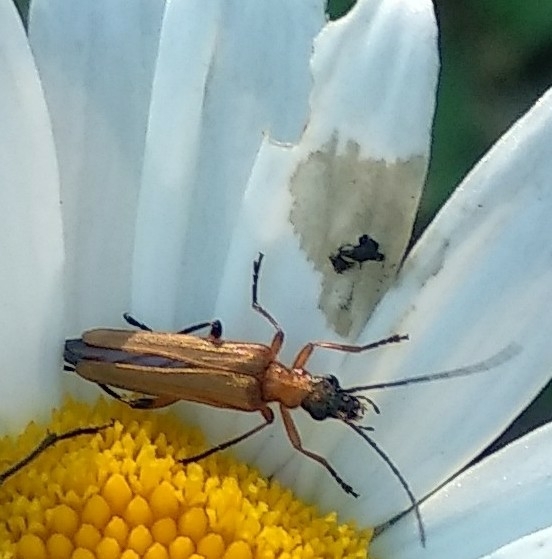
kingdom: Animalia
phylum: Arthropoda
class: Insecta
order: Coleoptera
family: Oedemeridae
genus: Oedemera
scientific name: Oedemera podagrariae
